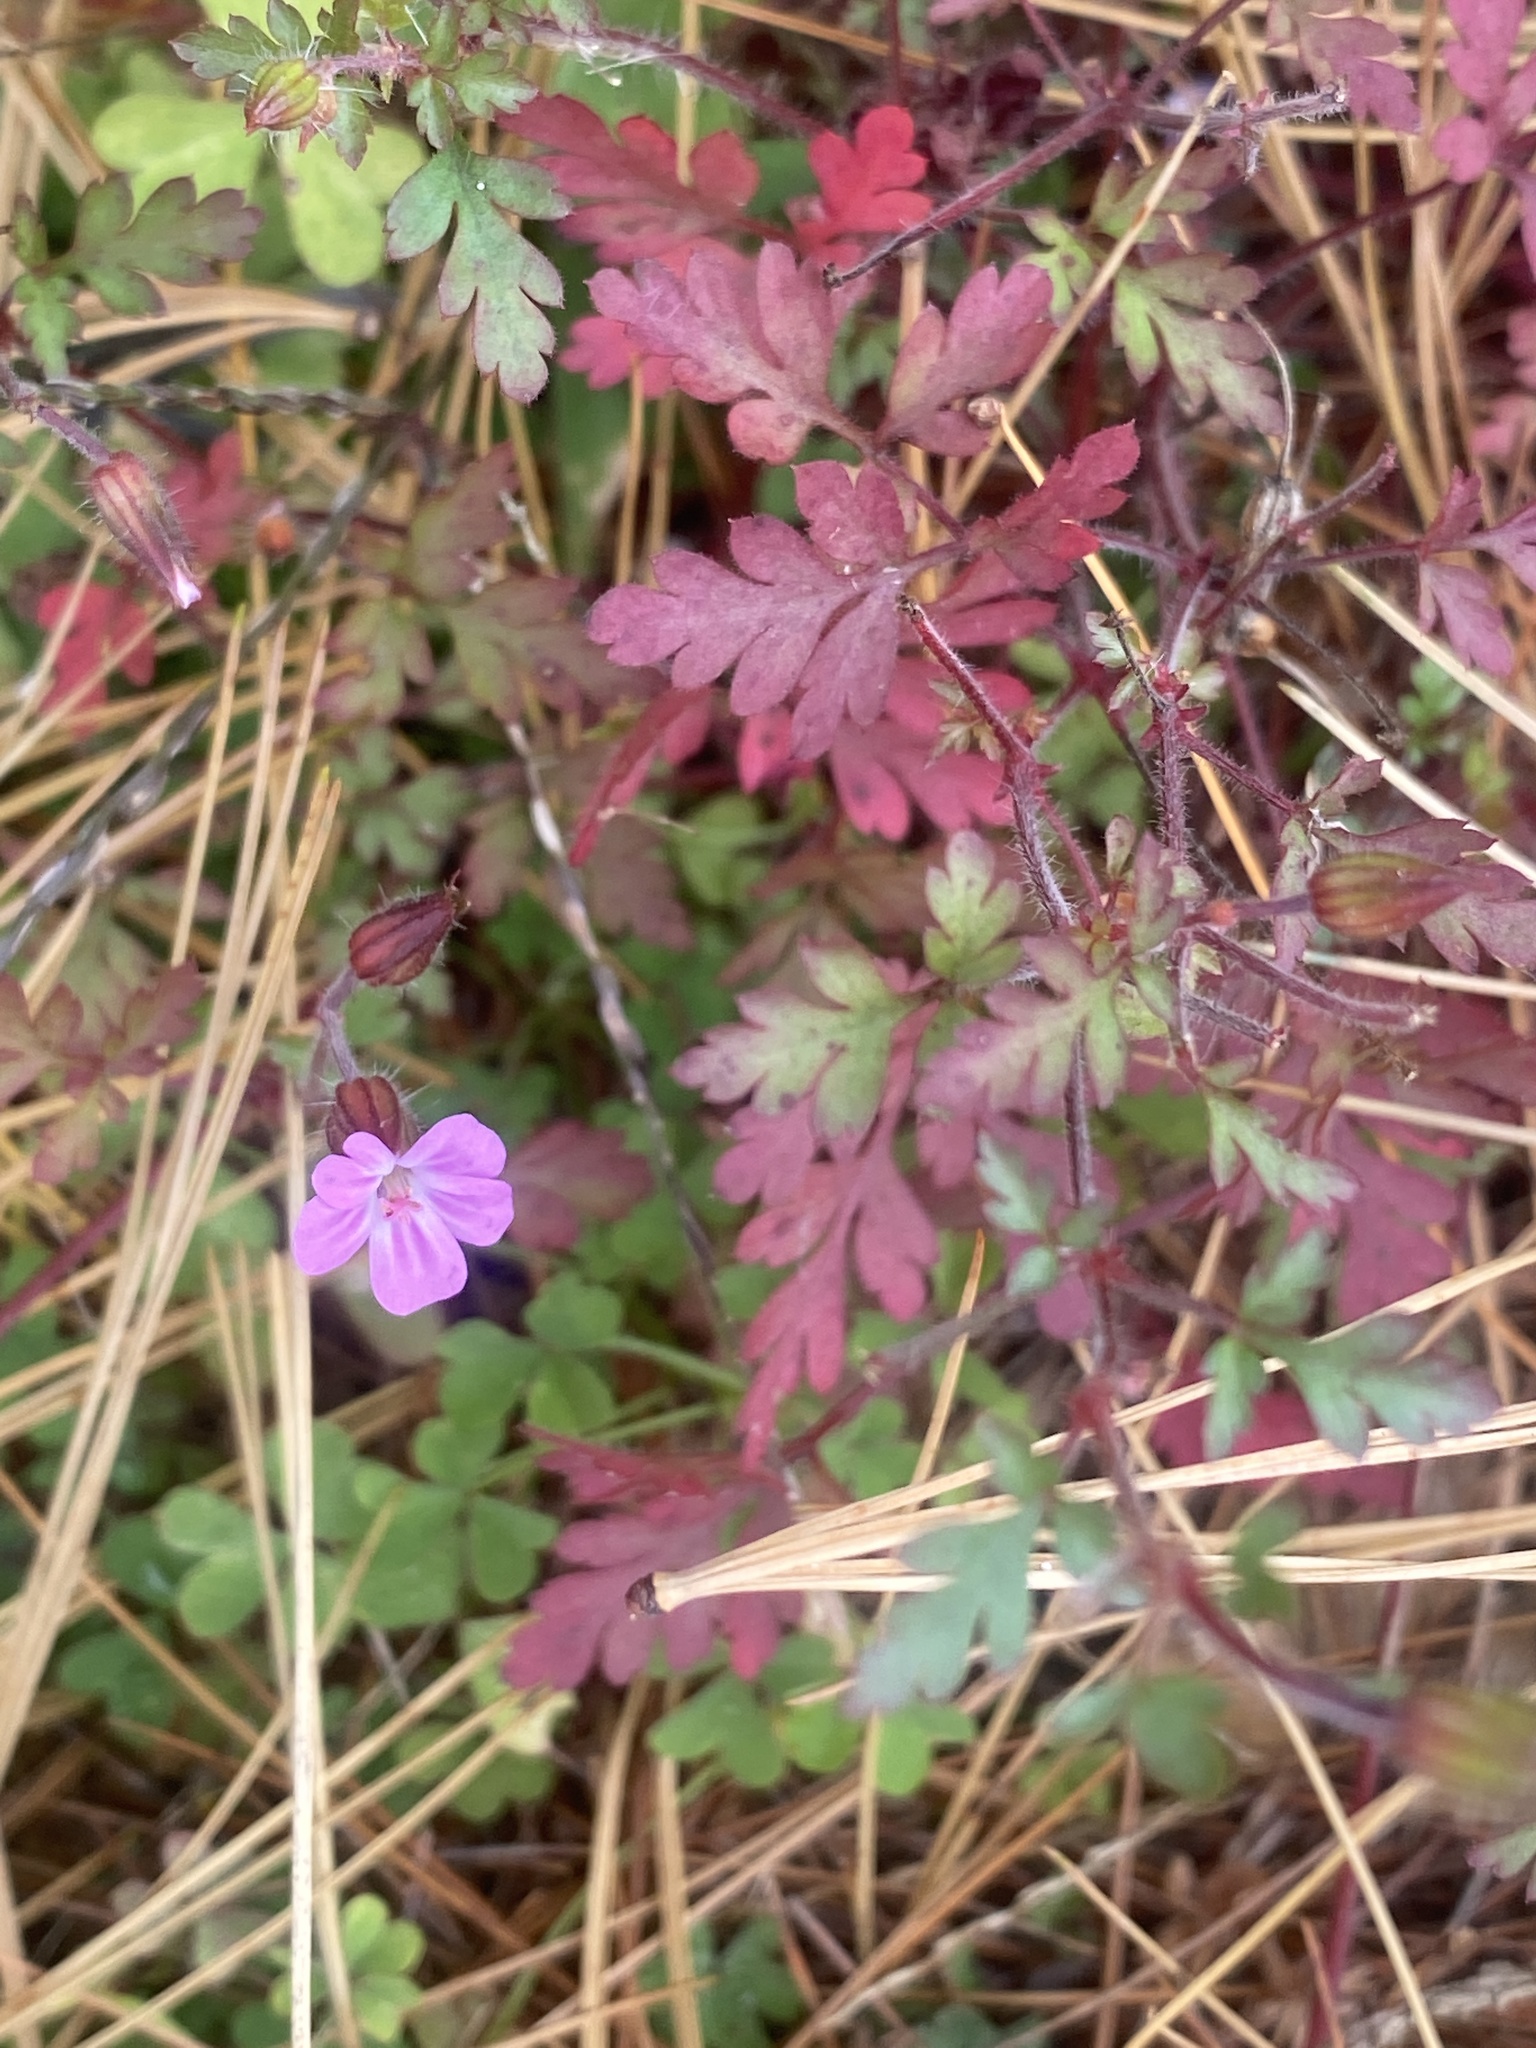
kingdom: Plantae
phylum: Tracheophyta
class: Magnoliopsida
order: Geraniales
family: Geraniaceae
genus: Geranium
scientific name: Geranium robertianum
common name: Herb-robert
